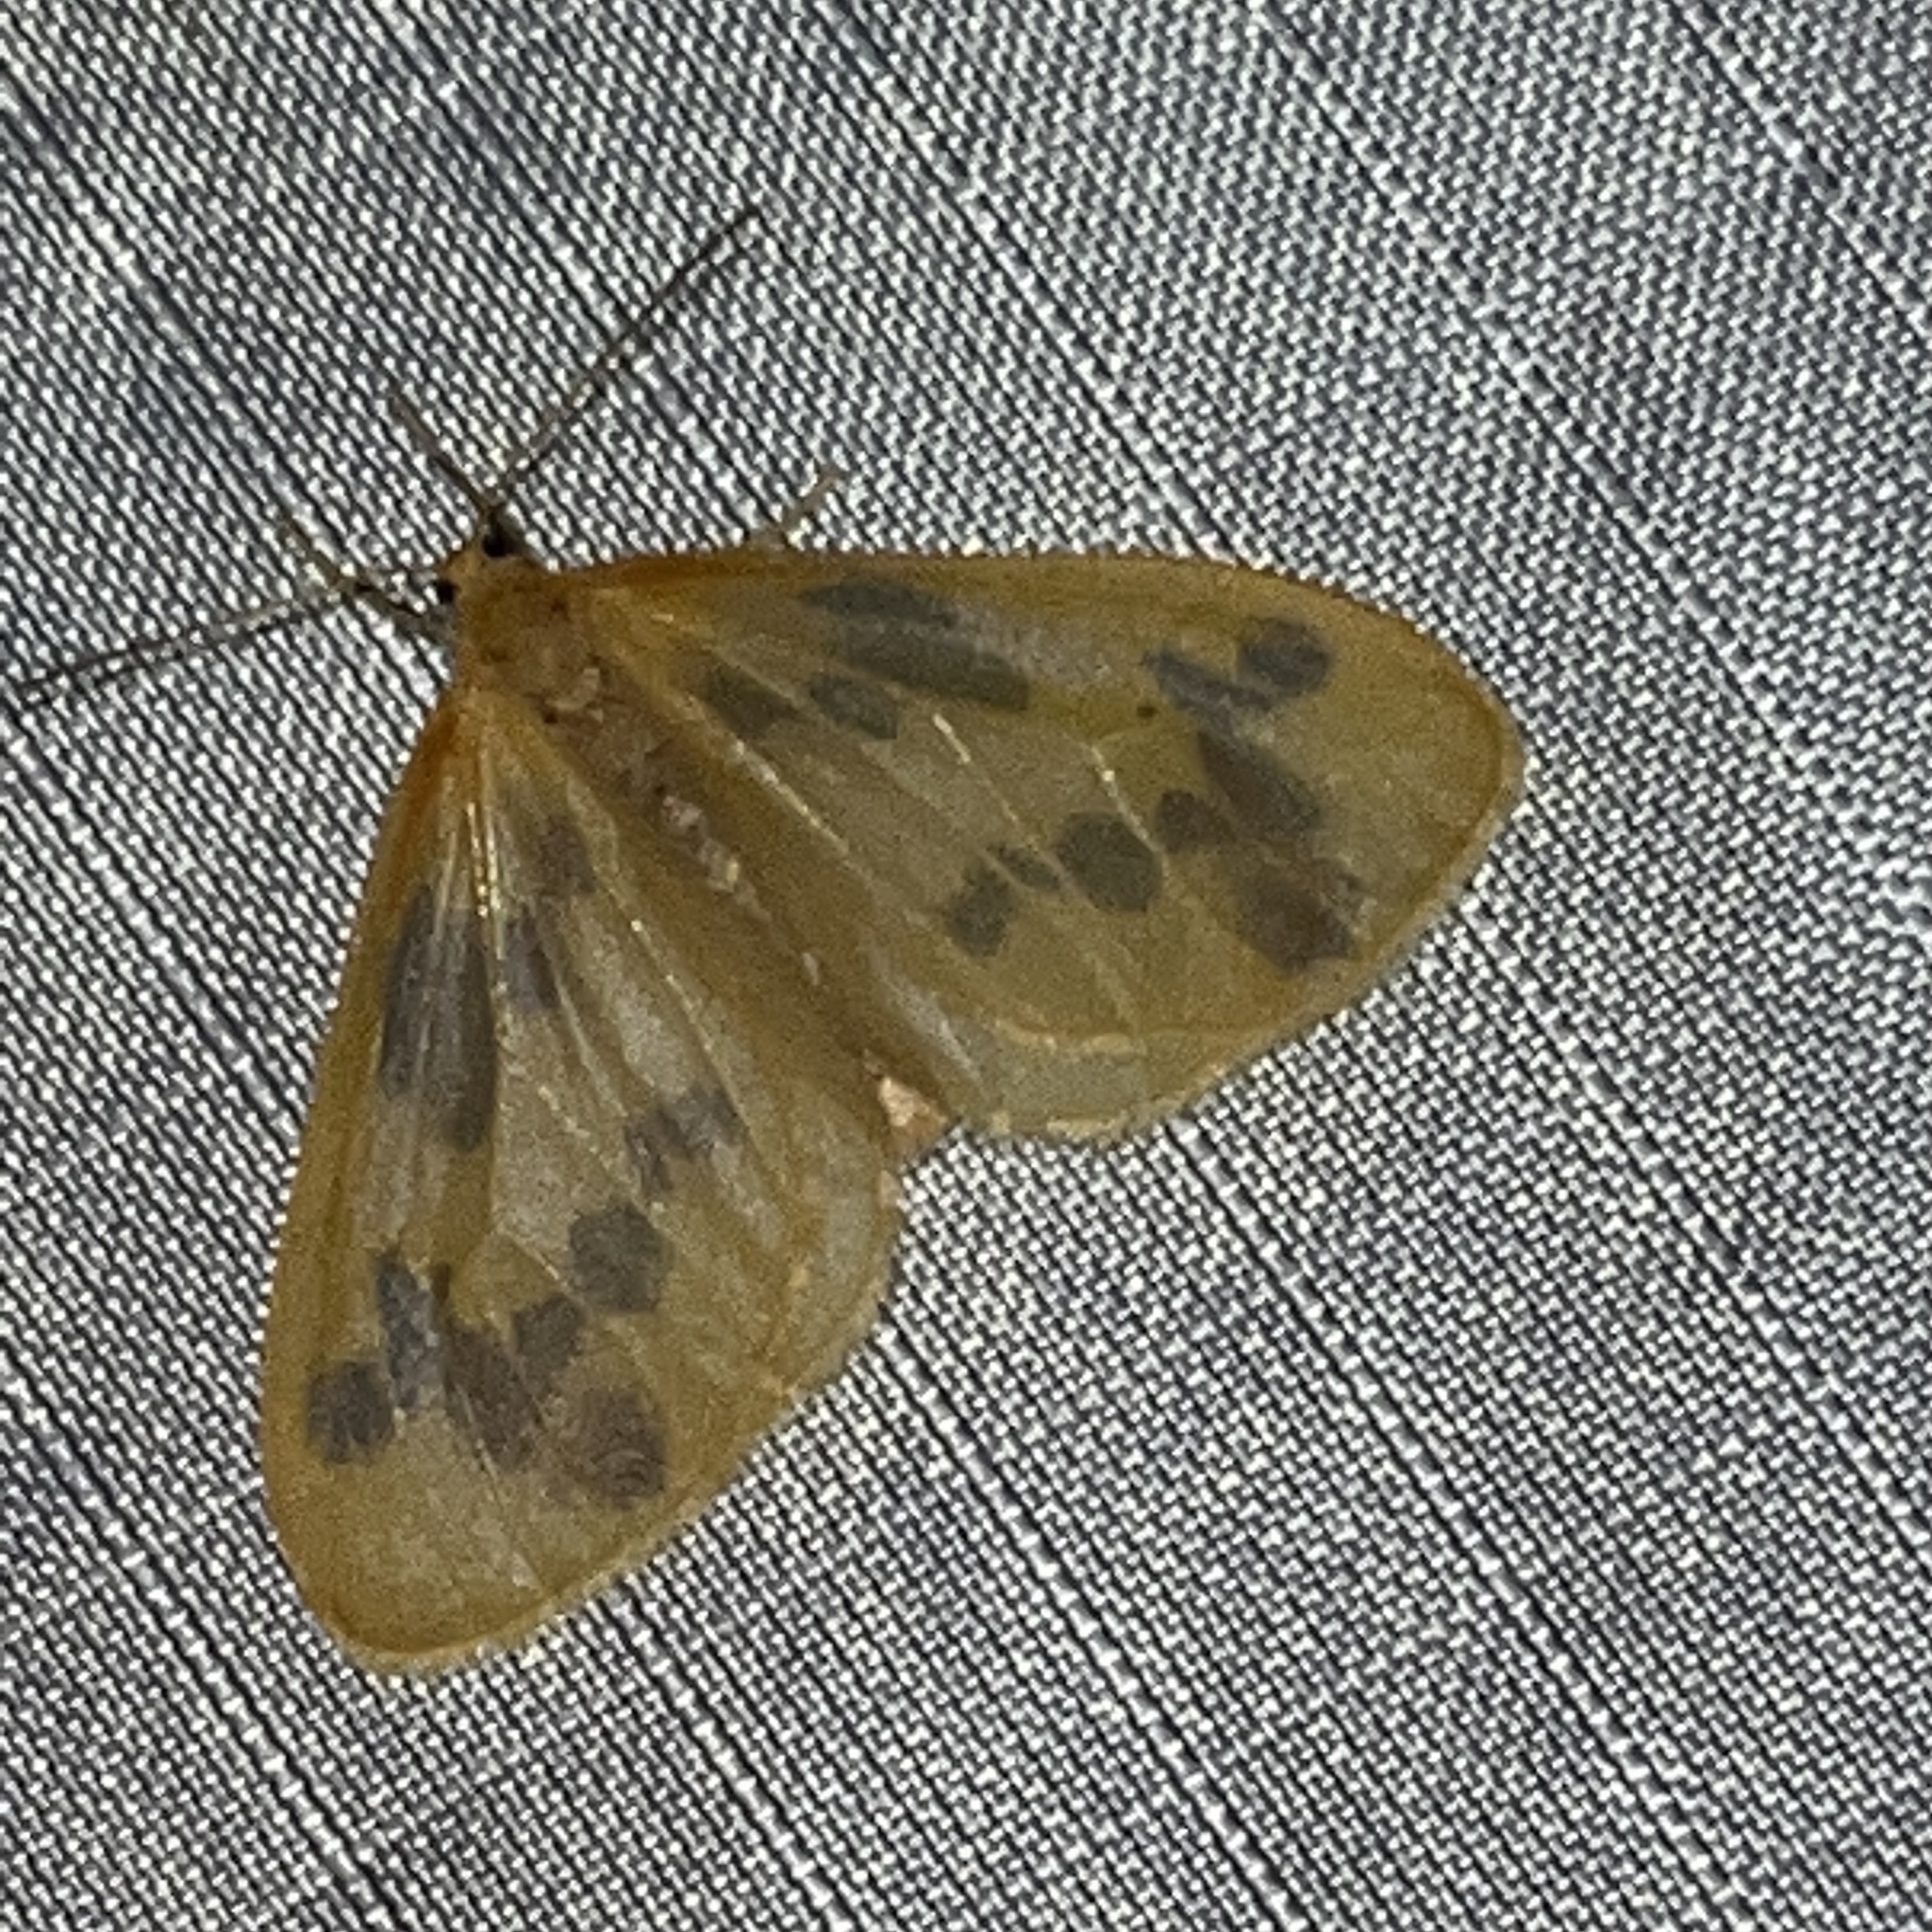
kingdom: Animalia
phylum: Arthropoda
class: Insecta
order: Lepidoptera
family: Geometridae
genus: Eubaphe
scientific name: Eubaphe mendica
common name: Beggar
